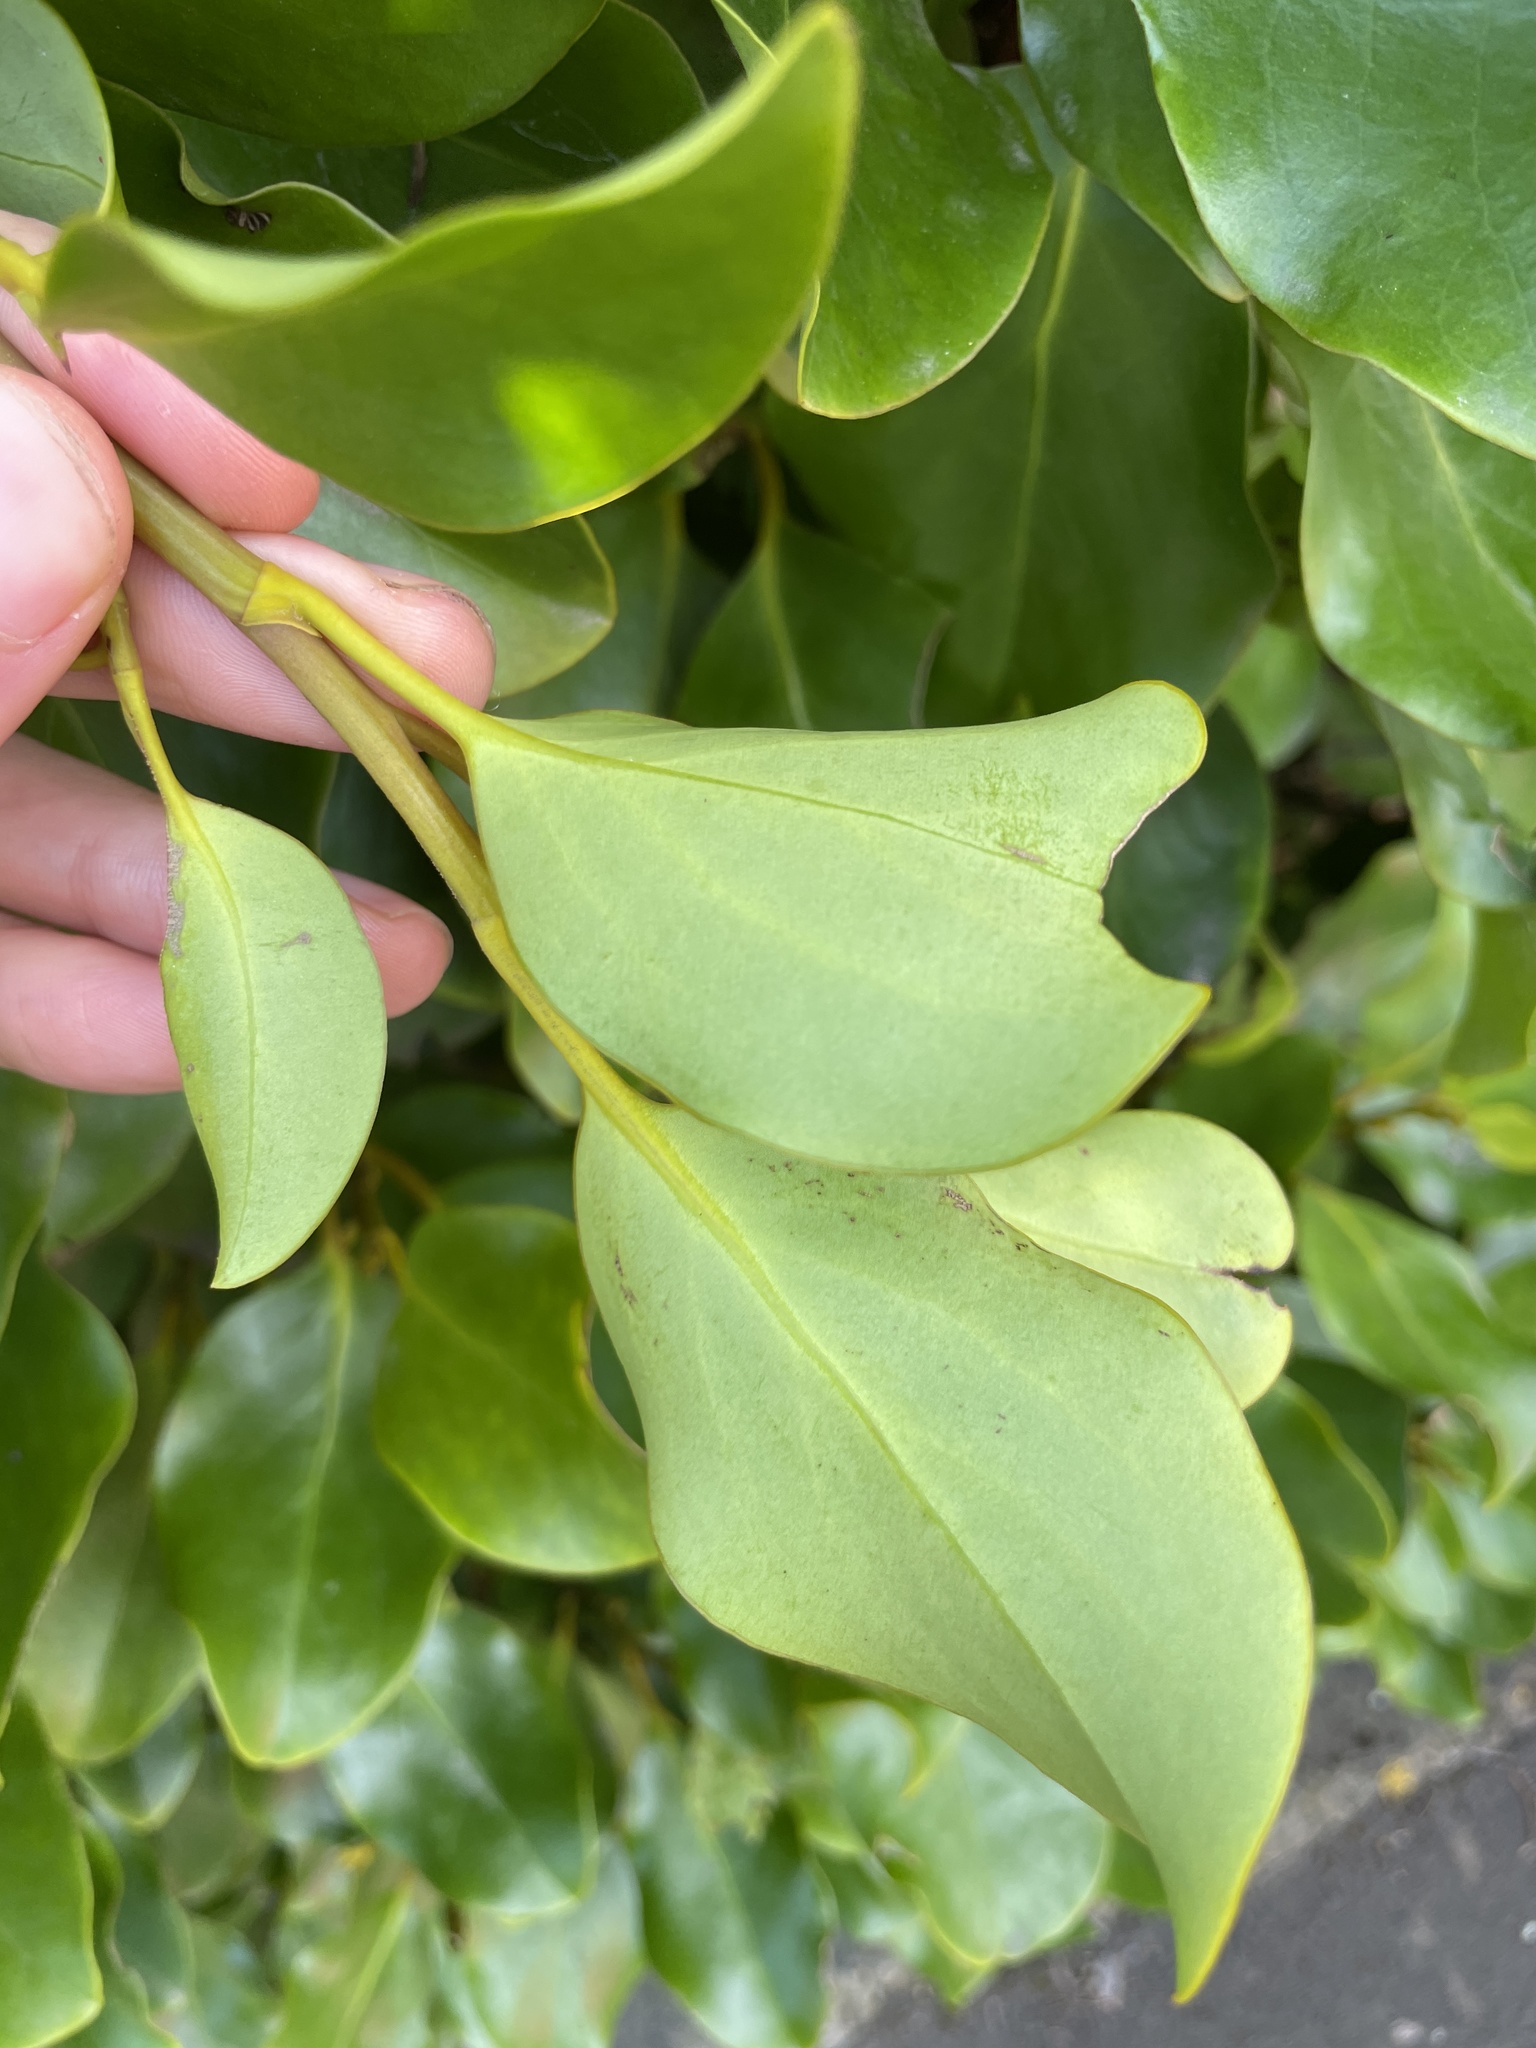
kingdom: Plantae
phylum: Tracheophyta
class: Magnoliopsida
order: Apiales
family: Griseliniaceae
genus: Griselinia
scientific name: Griselinia littoralis
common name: New zealand broadleaf
